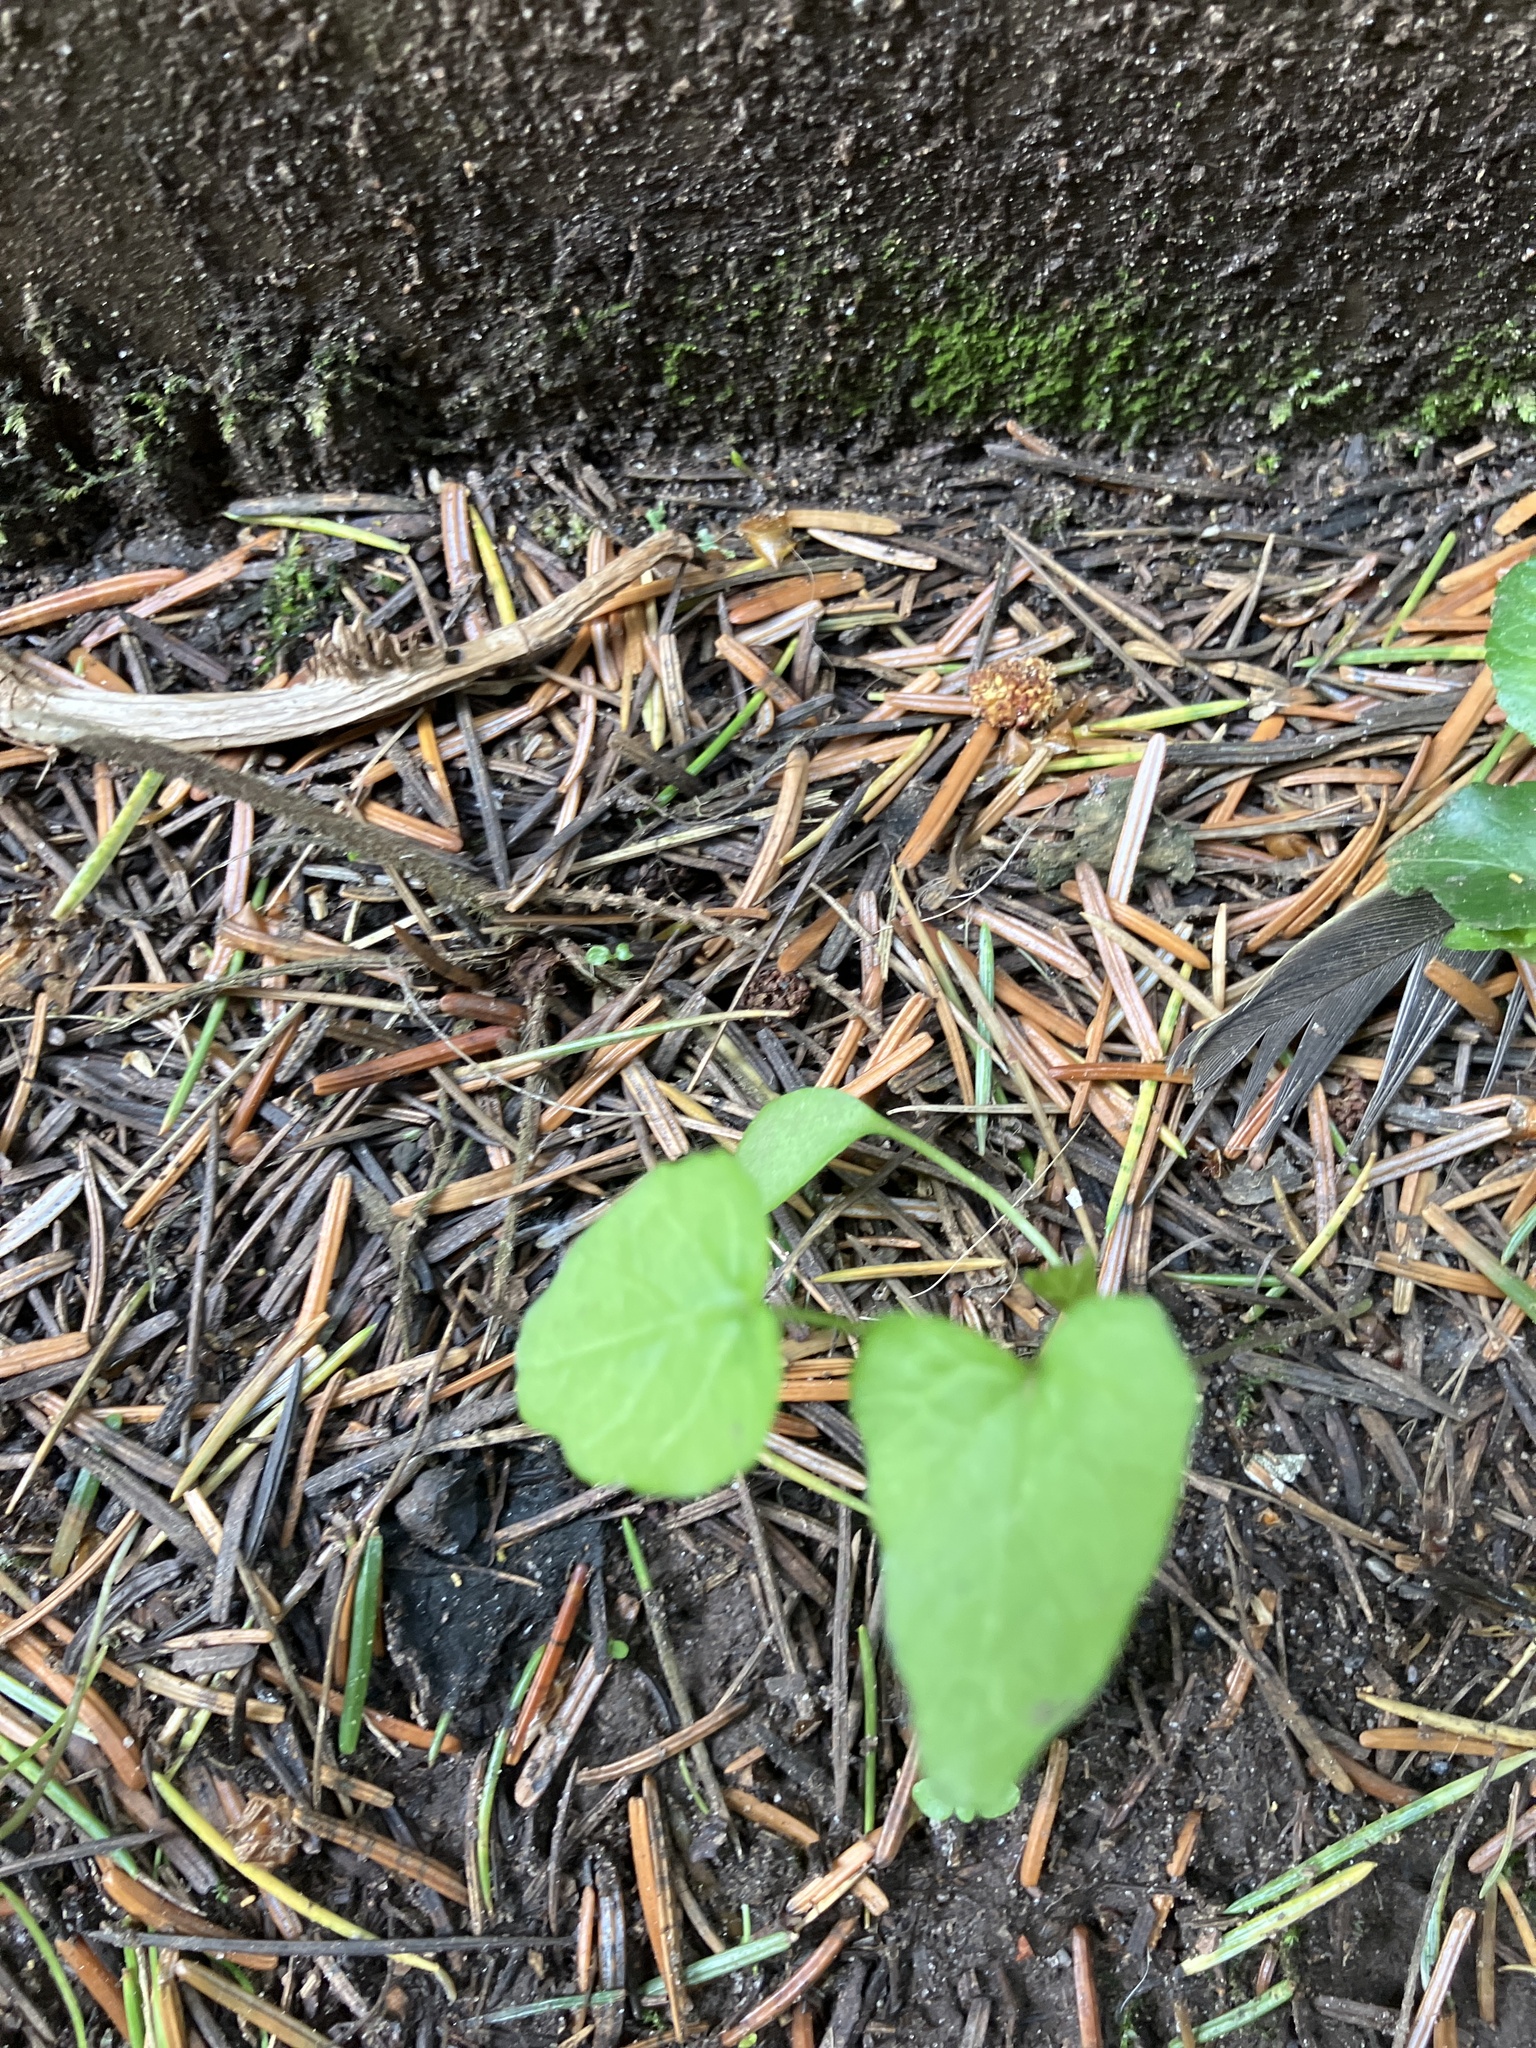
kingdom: Plantae
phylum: Tracheophyta
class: Magnoliopsida
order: Solanales
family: Convolvulaceae
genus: Calystegia
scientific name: Calystegia silvatica
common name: Large bindweed
